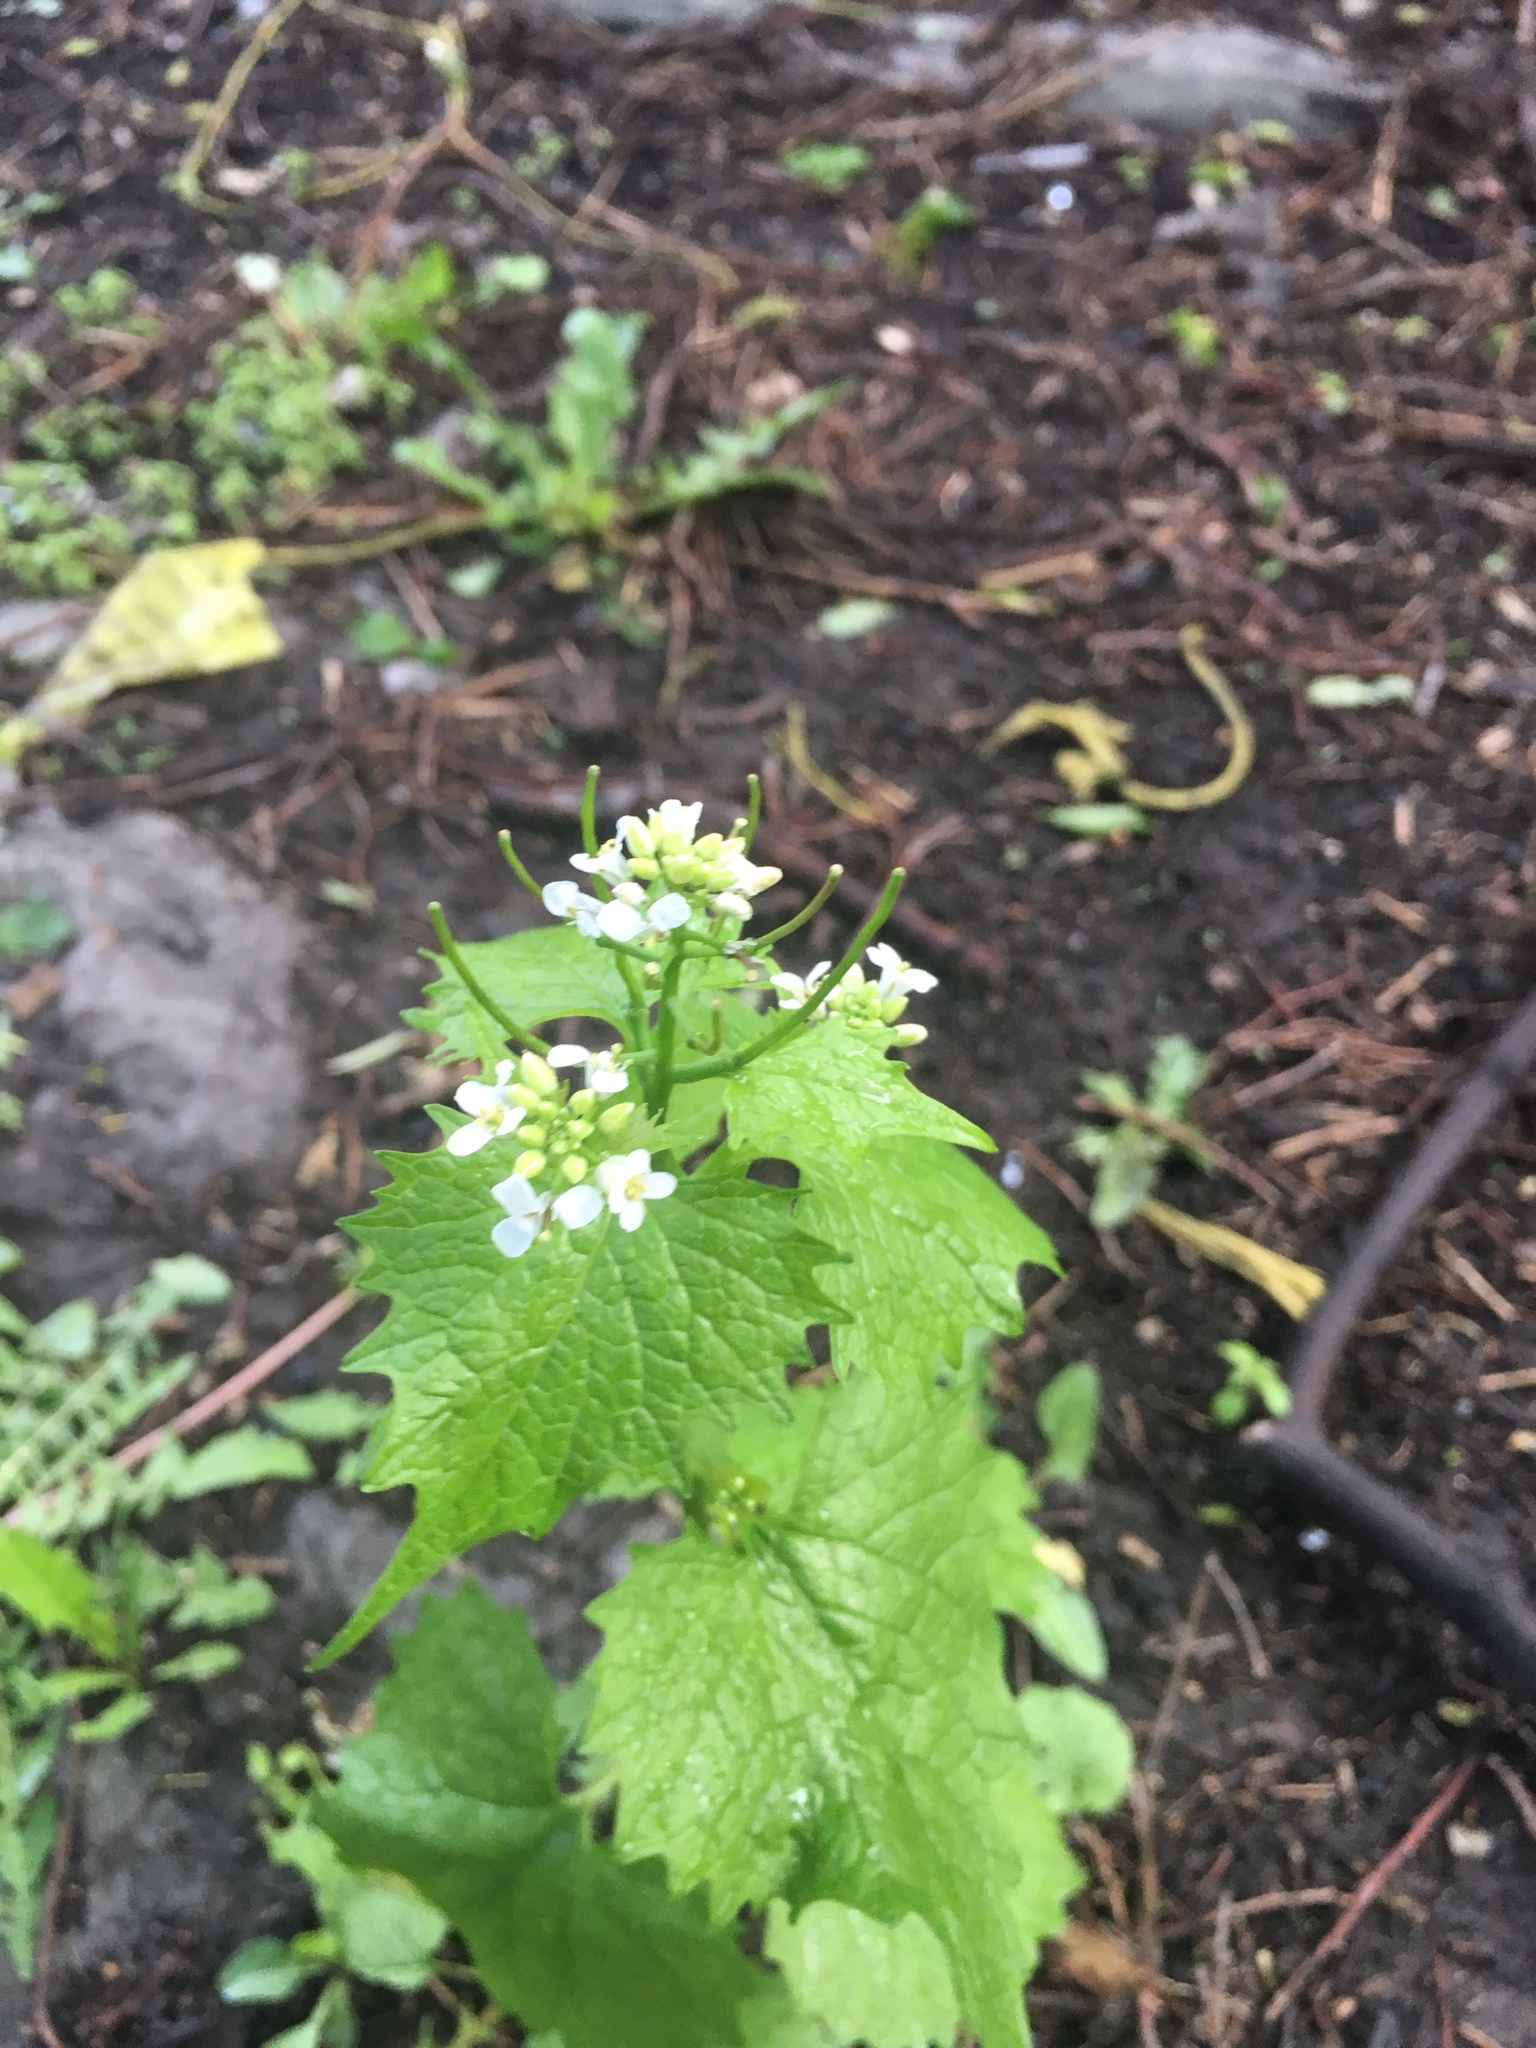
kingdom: Plantae
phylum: Tracheophyta
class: Magnoliopsida
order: Brassicales
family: Brassicaceae
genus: Alliaria
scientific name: Alliaria petiolata
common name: Garlic mustard
